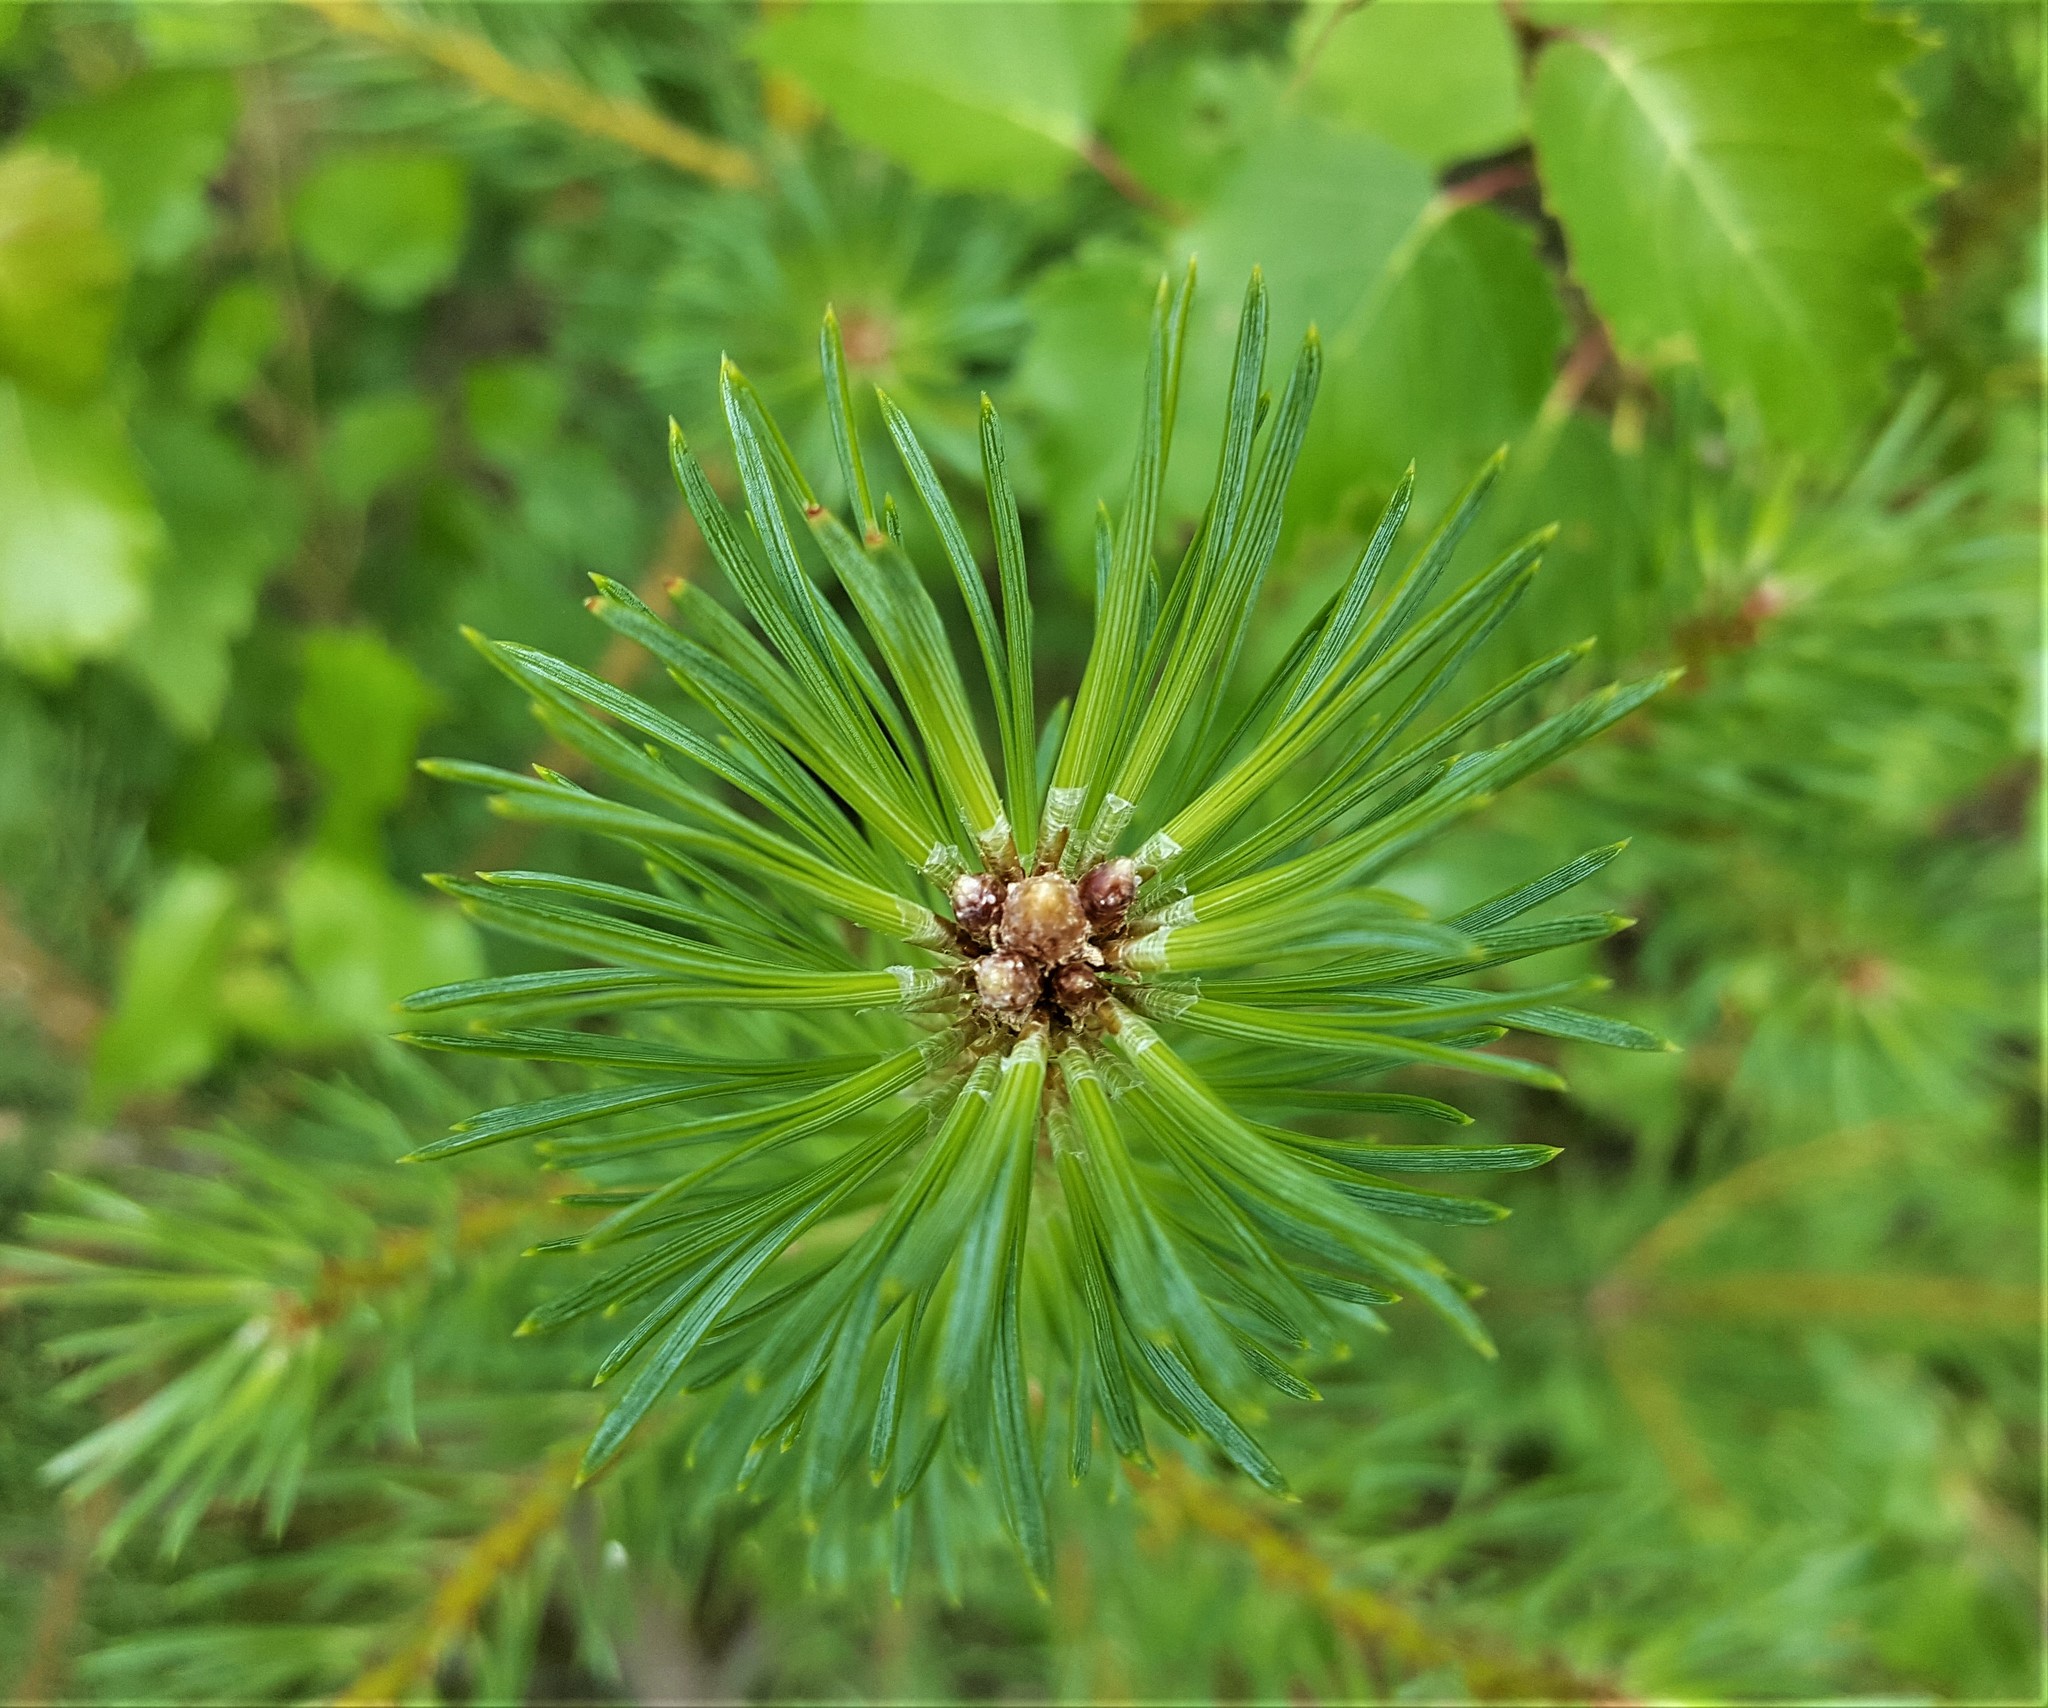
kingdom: Plantae
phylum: Tracheophyta
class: Pinopsida
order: Pinales
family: Pinaceae
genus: Pinus
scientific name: Pinus sylvestris
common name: Scots pine
